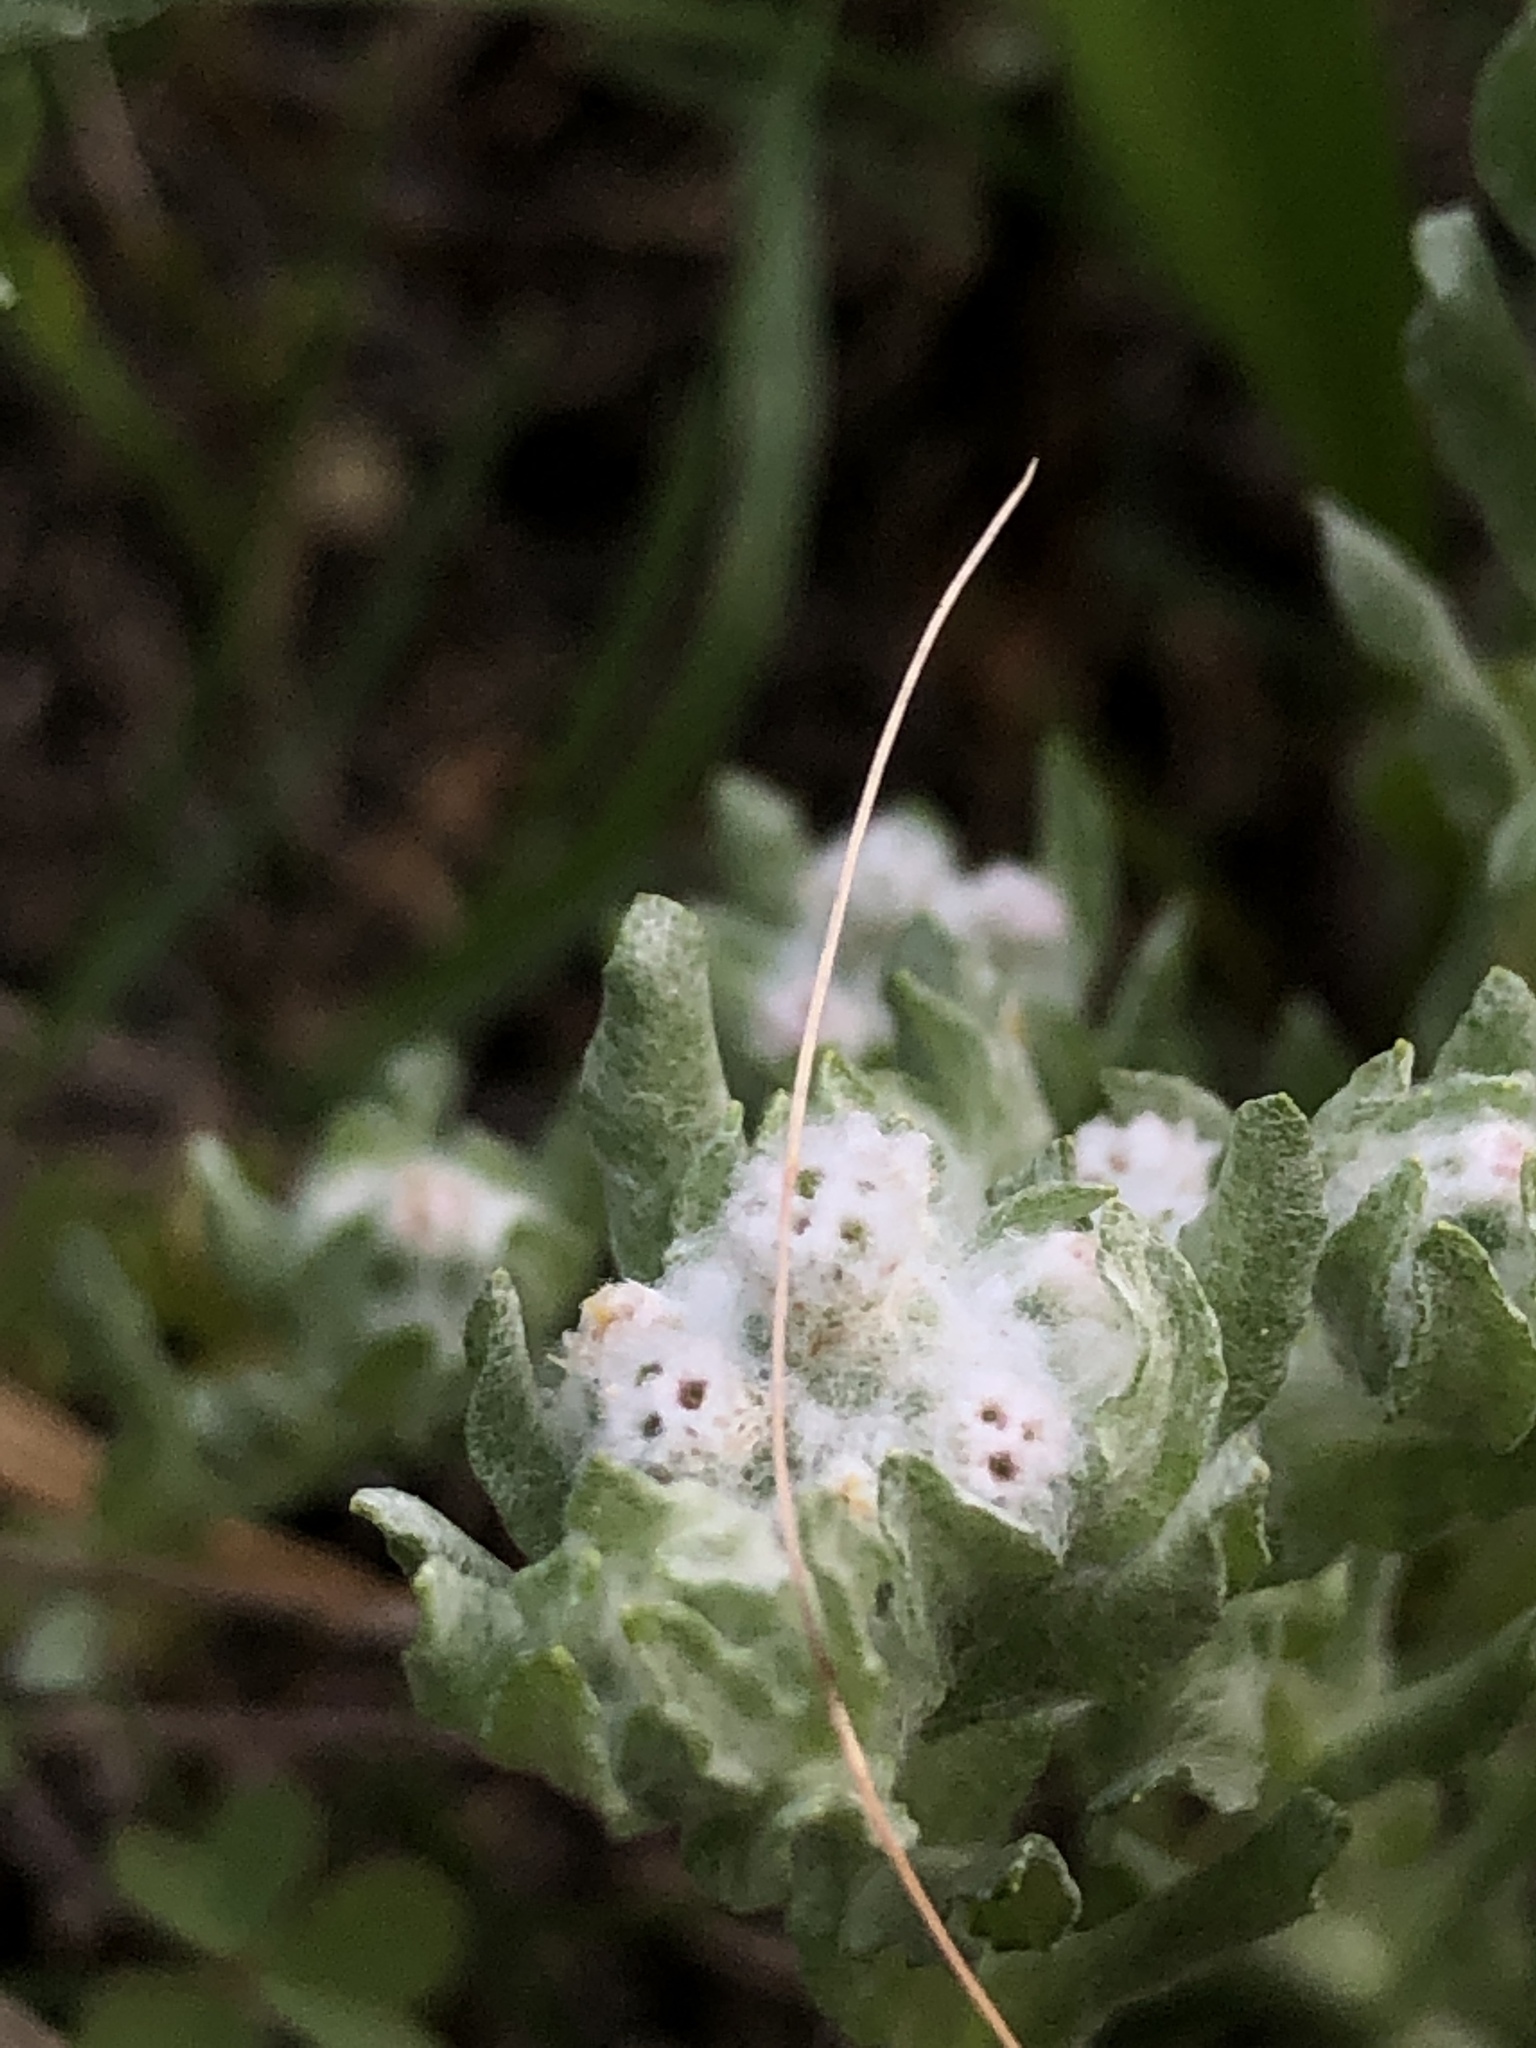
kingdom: Plantae
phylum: Tracheophyta
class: Magnoliopsida
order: Asterales
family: Asteraceae
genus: Diaperia
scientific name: Diaperia verna
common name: Many-stem rabbit-tobacco
